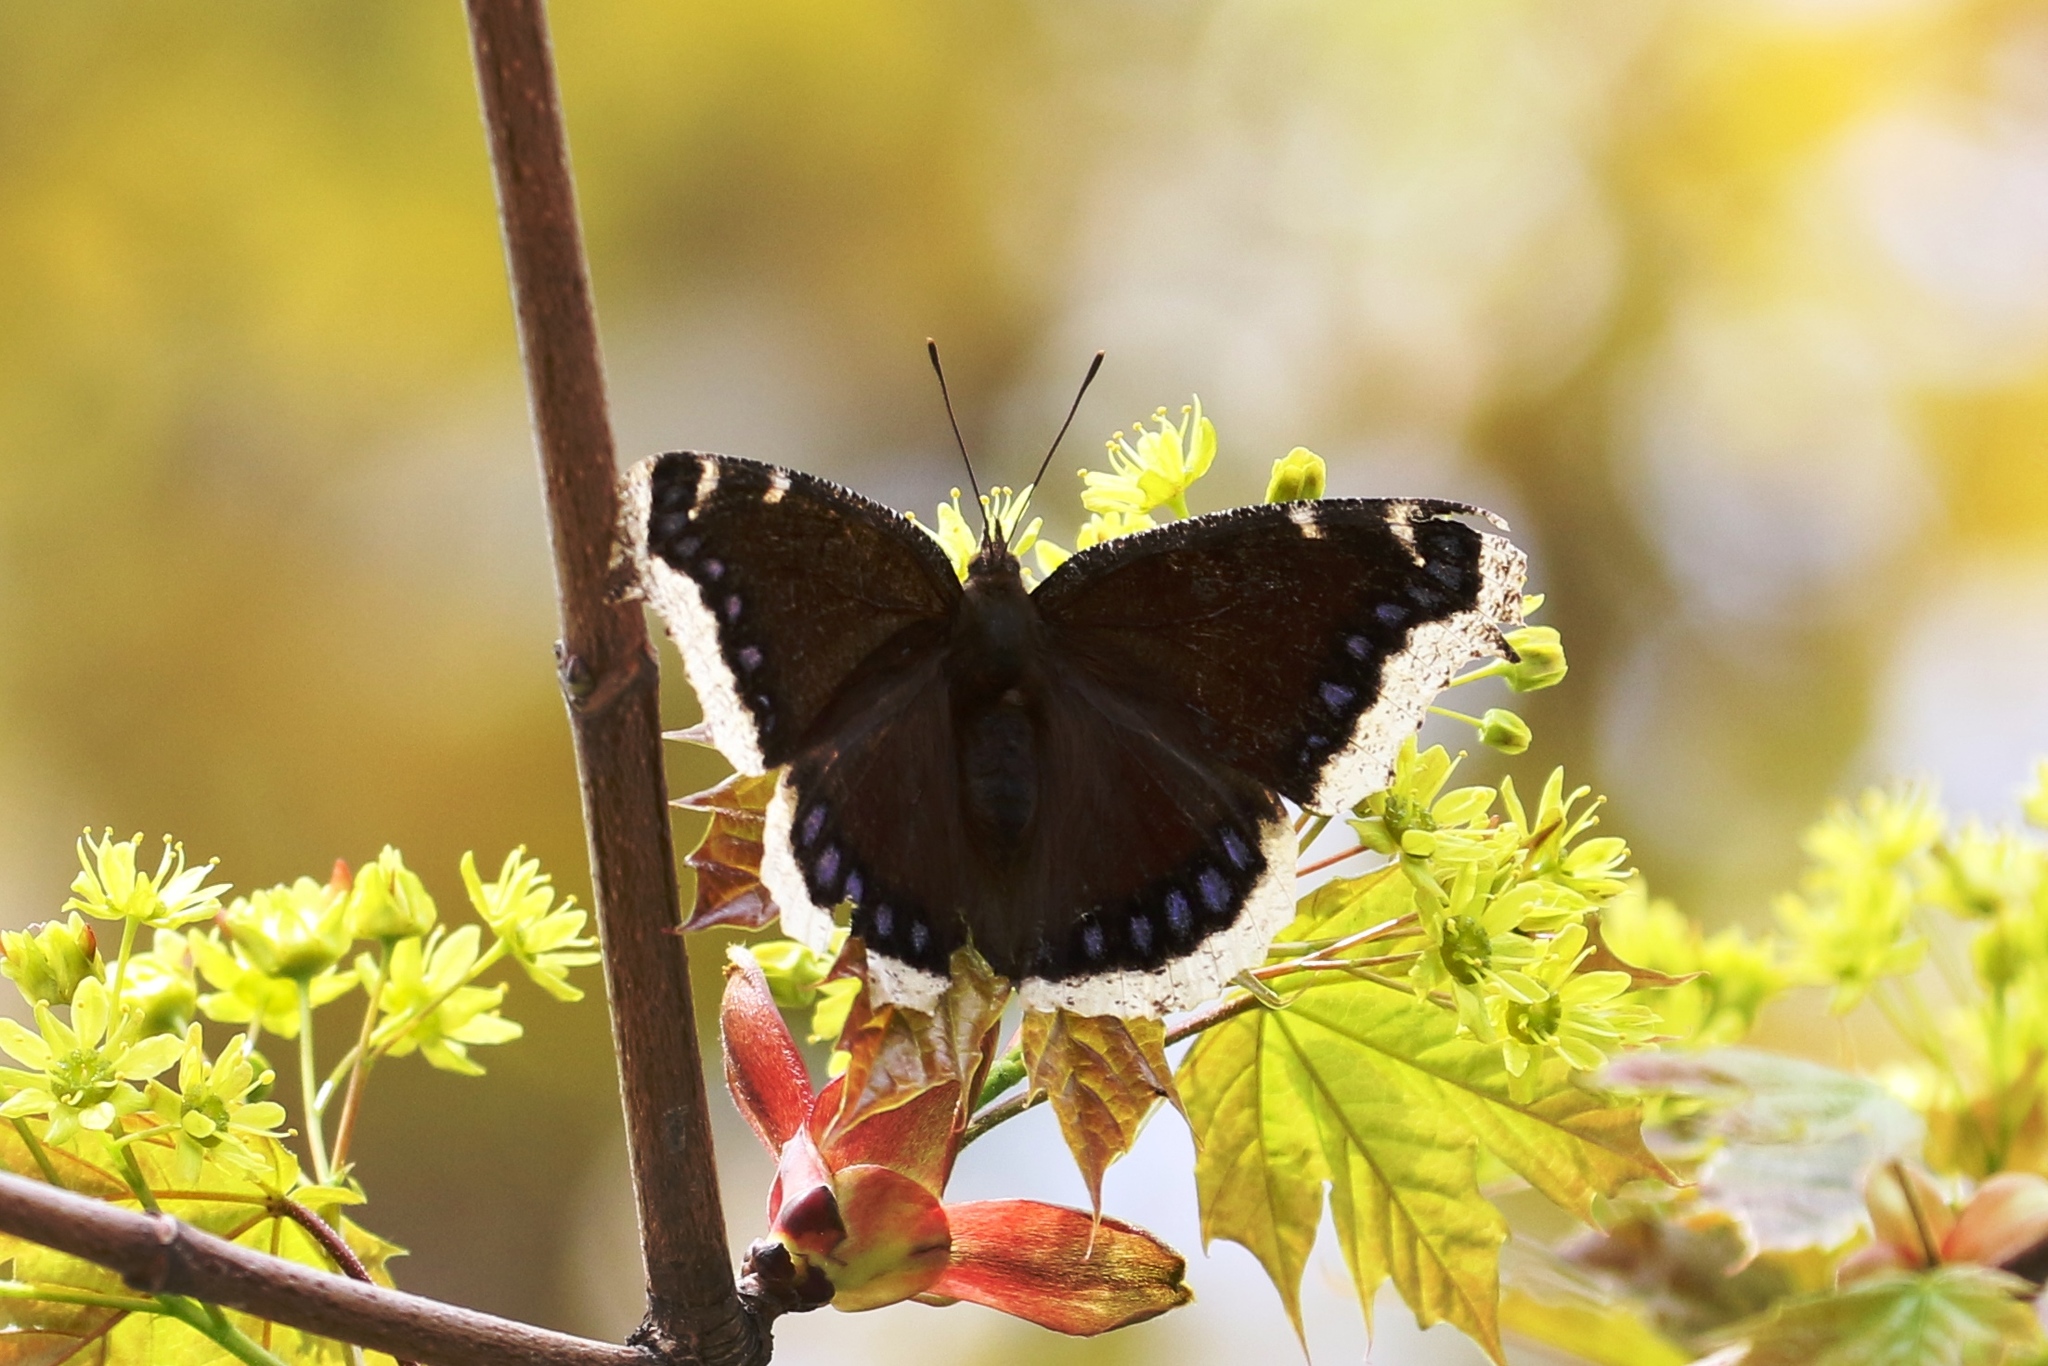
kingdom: Animalia
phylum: Arthropoda
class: Insecta
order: Lepidoptera
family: Nymphalidae
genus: Nymphalis
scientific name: Nymphalis antiopa
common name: Camberwell beauty
